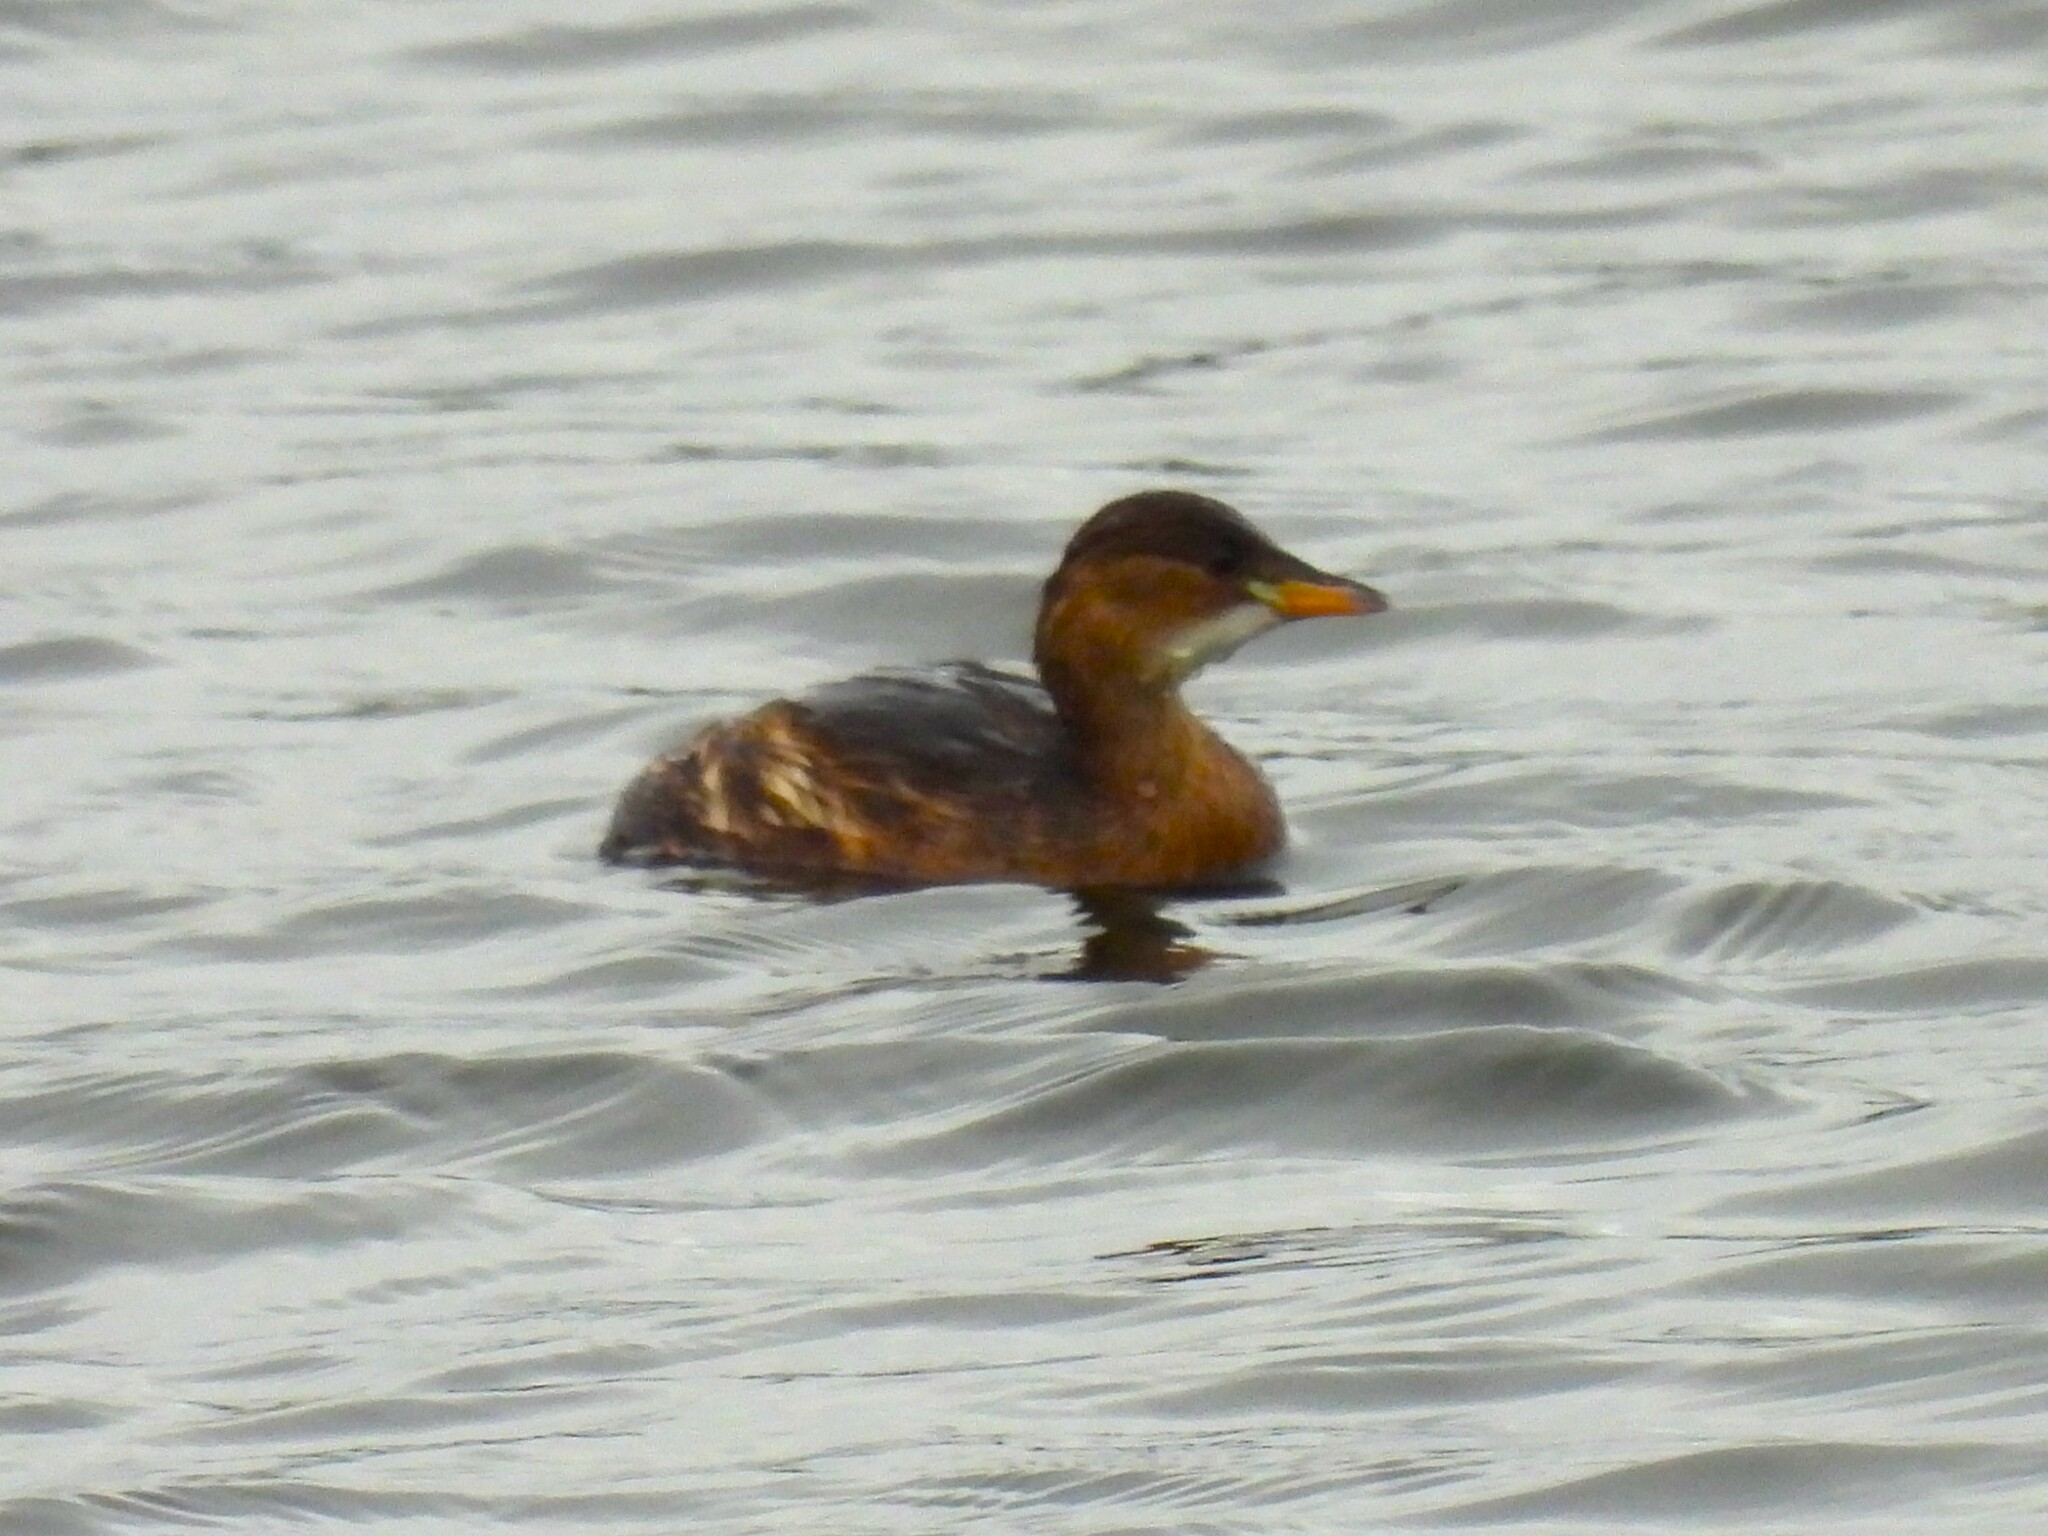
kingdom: Animalia
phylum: Chordata
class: Aves
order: Podicipediformes
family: Podicipedidae
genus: Tachybaptus
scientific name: Tachybaptus ruficollis
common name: Little grebe
